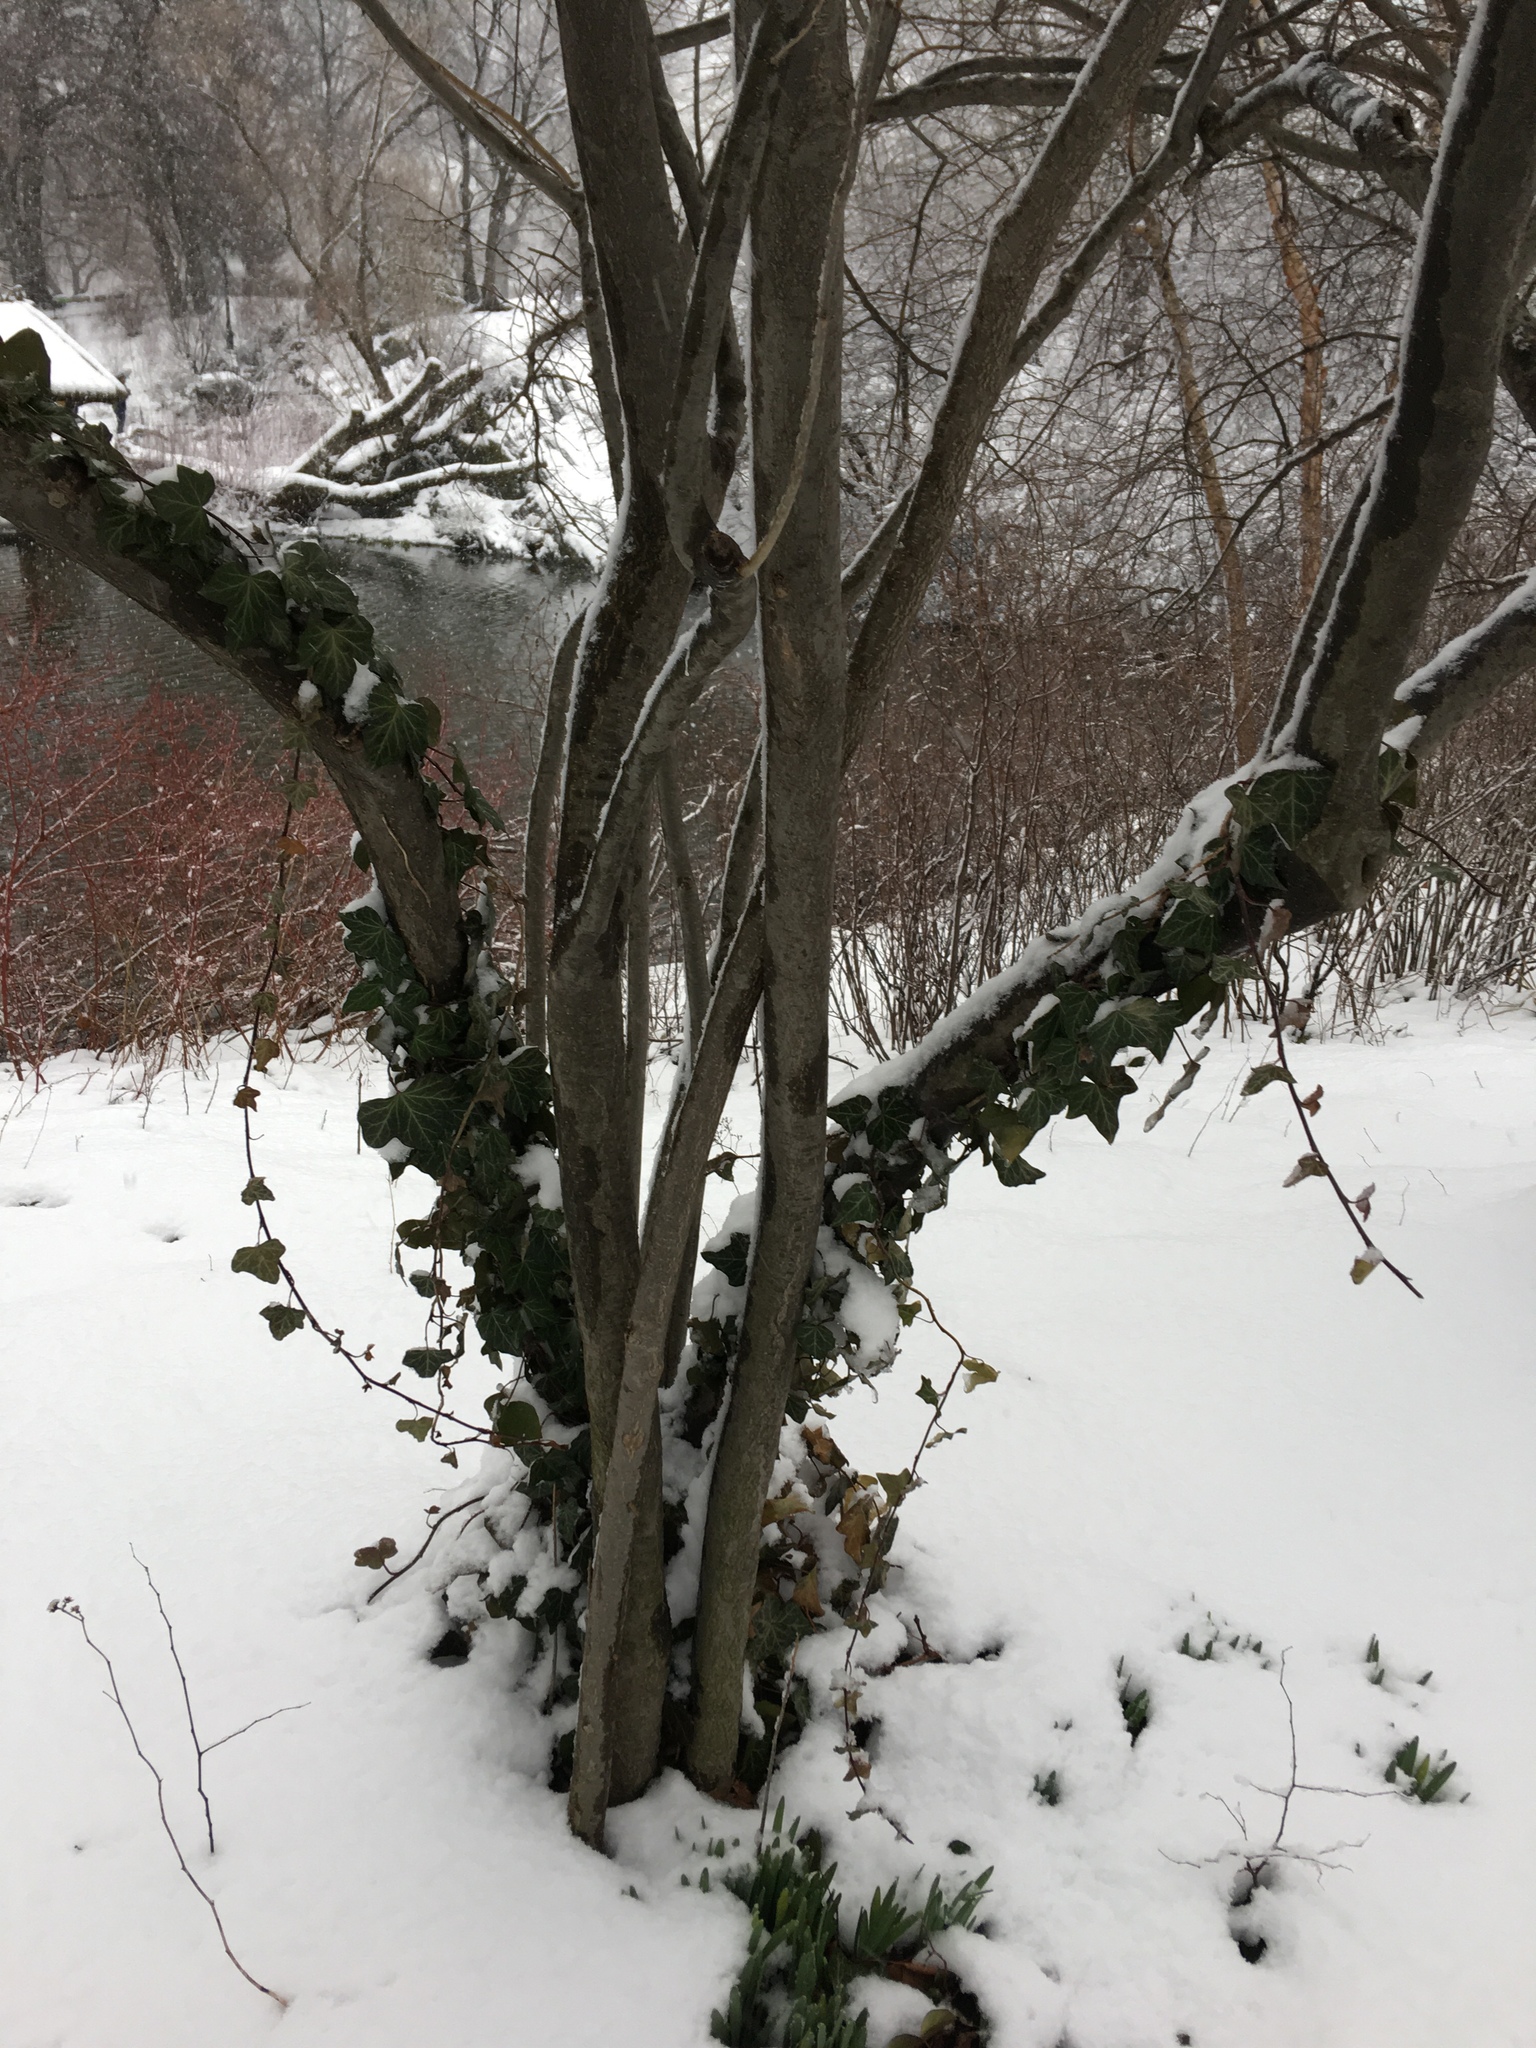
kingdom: Plantae
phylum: Tracheophyta
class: Magnoliopsida
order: Apiales
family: Araliaceae
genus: Hedera
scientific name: Hedera
